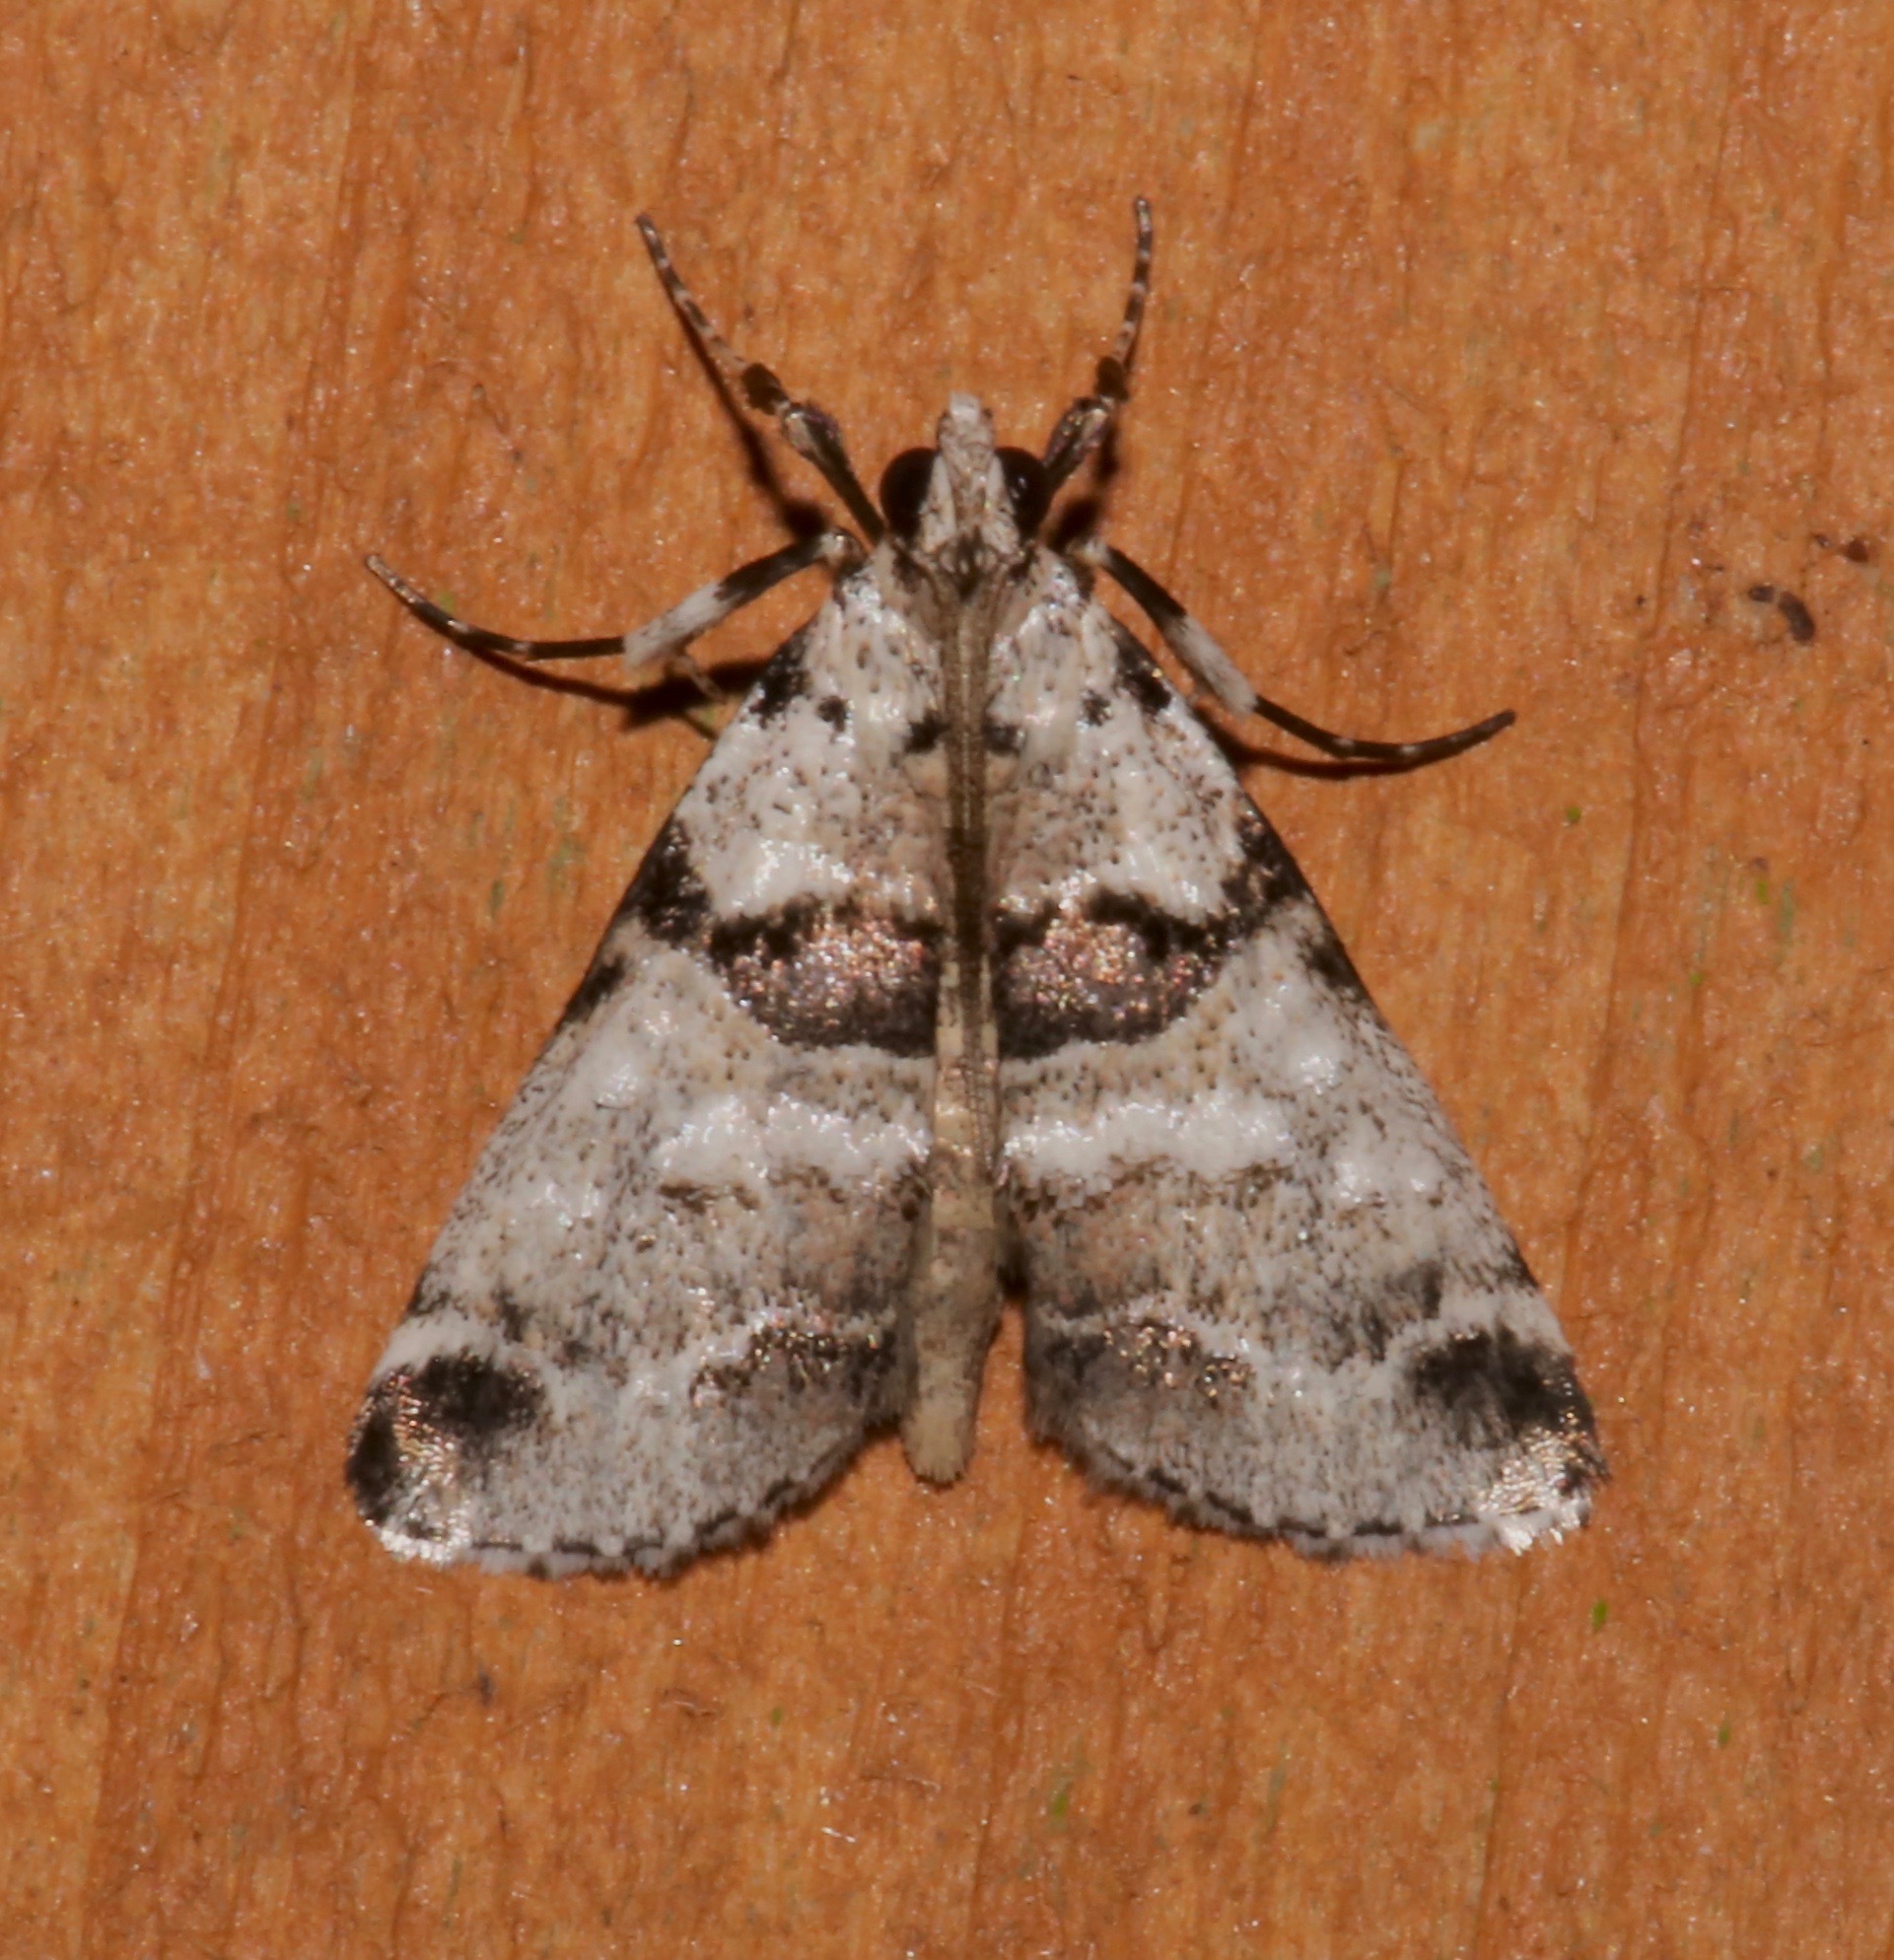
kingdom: Animalia
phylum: Arthropoda
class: Insecta
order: Lepidoptera
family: Pyralidae
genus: Tallula
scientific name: Tallula atrifascialis
